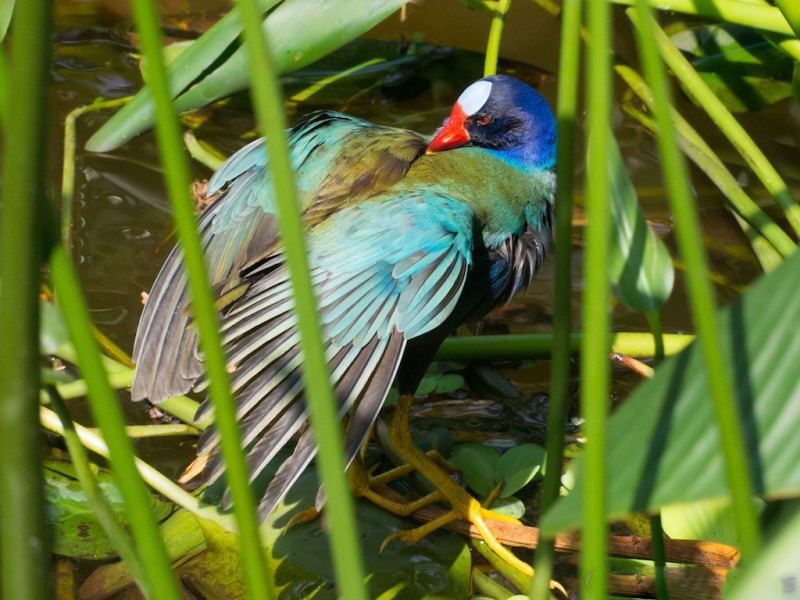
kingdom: Animalia
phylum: Chordata
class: Aves
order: Gruiformes
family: Rallidae
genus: Porphyrio
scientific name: Porphyrio martinica
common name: Purple gallinule
